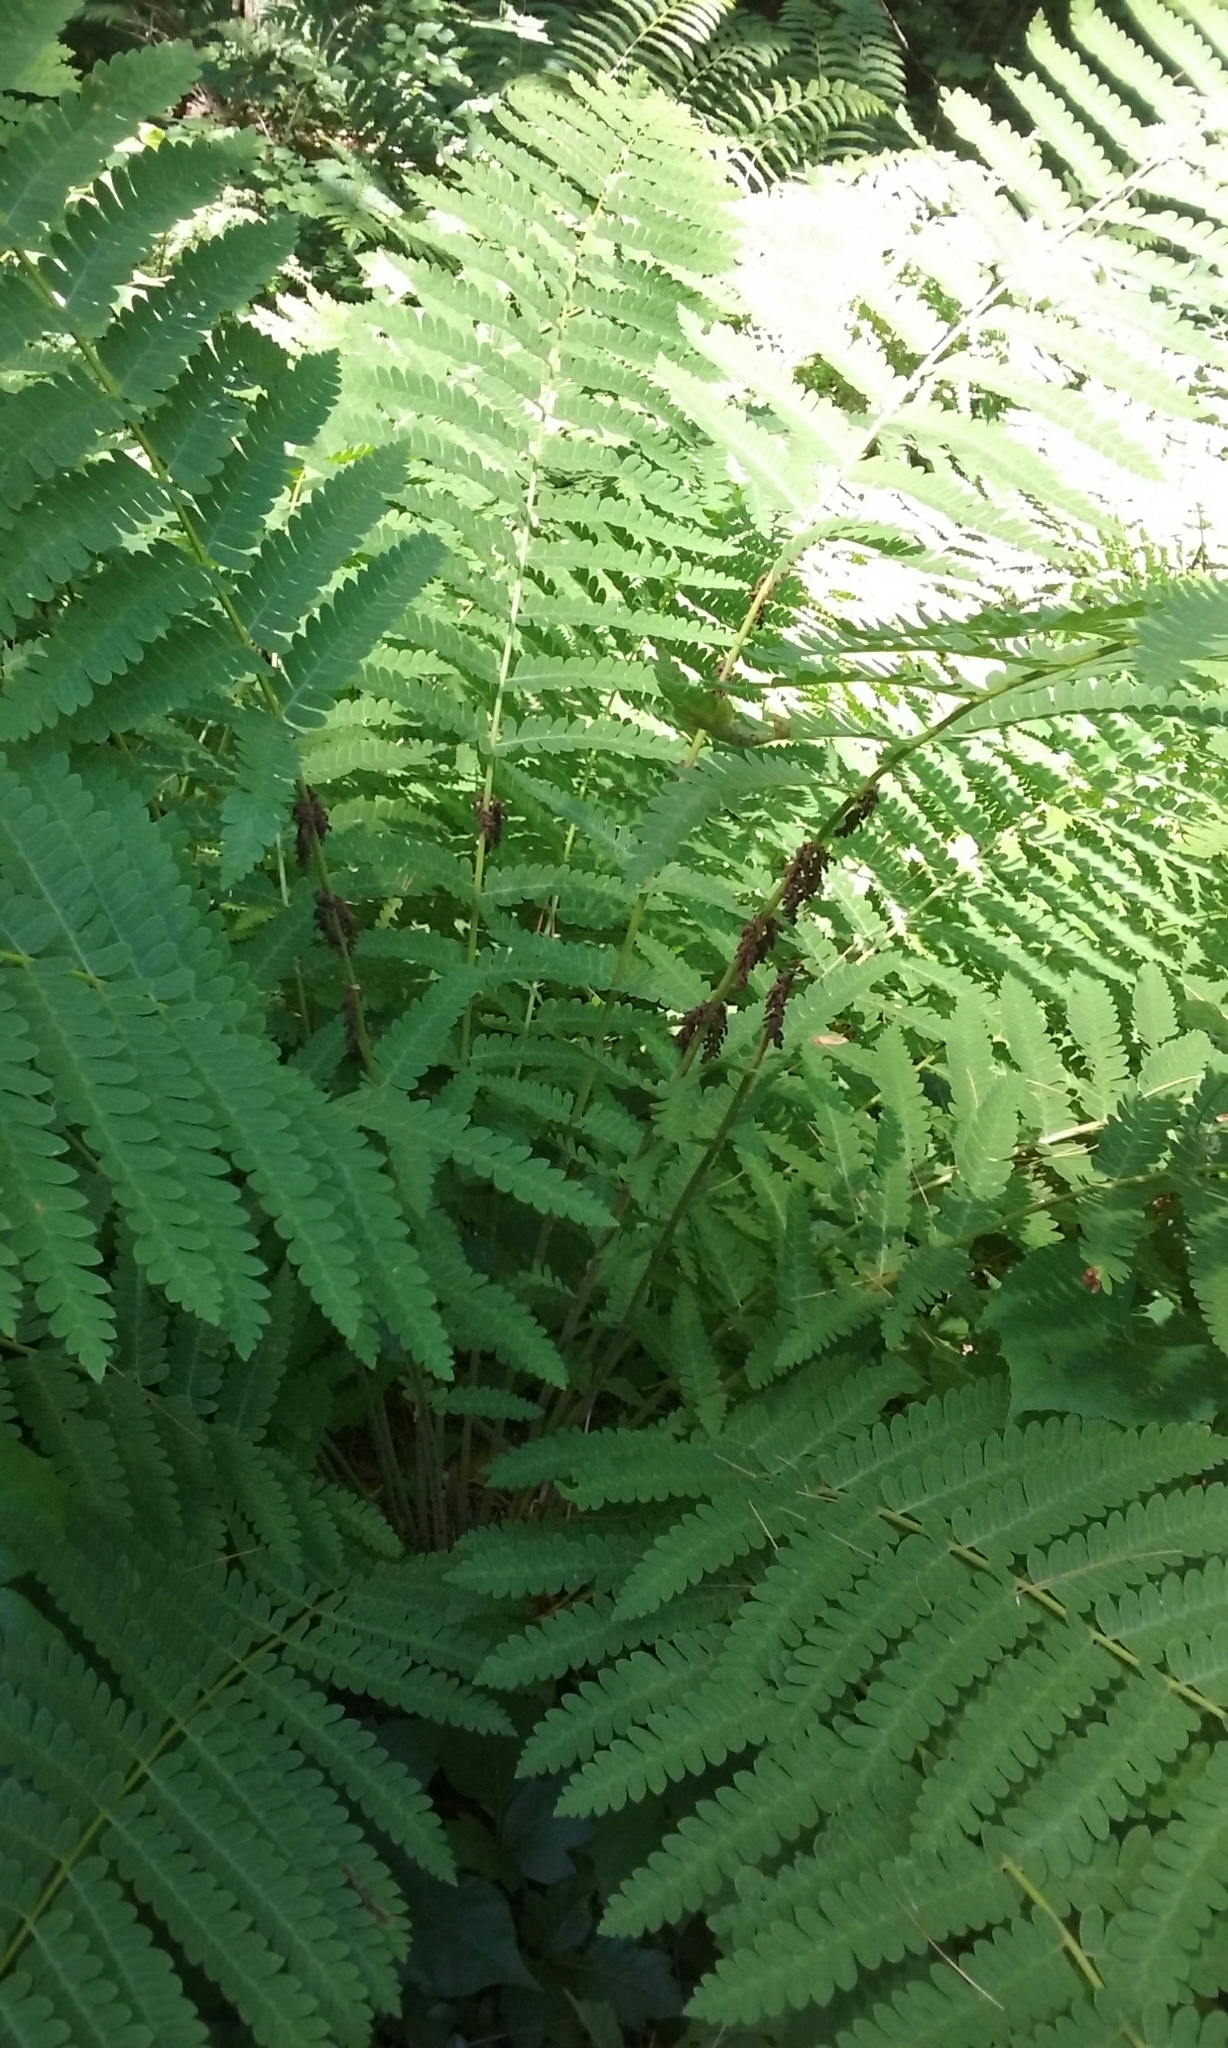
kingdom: Plantae
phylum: Tracheophyta
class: Polypodiopsida
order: Osmundales
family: Osmundaceae
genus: Claytosmunda
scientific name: Claytosmunda claytoniana
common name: Clayton's fern
